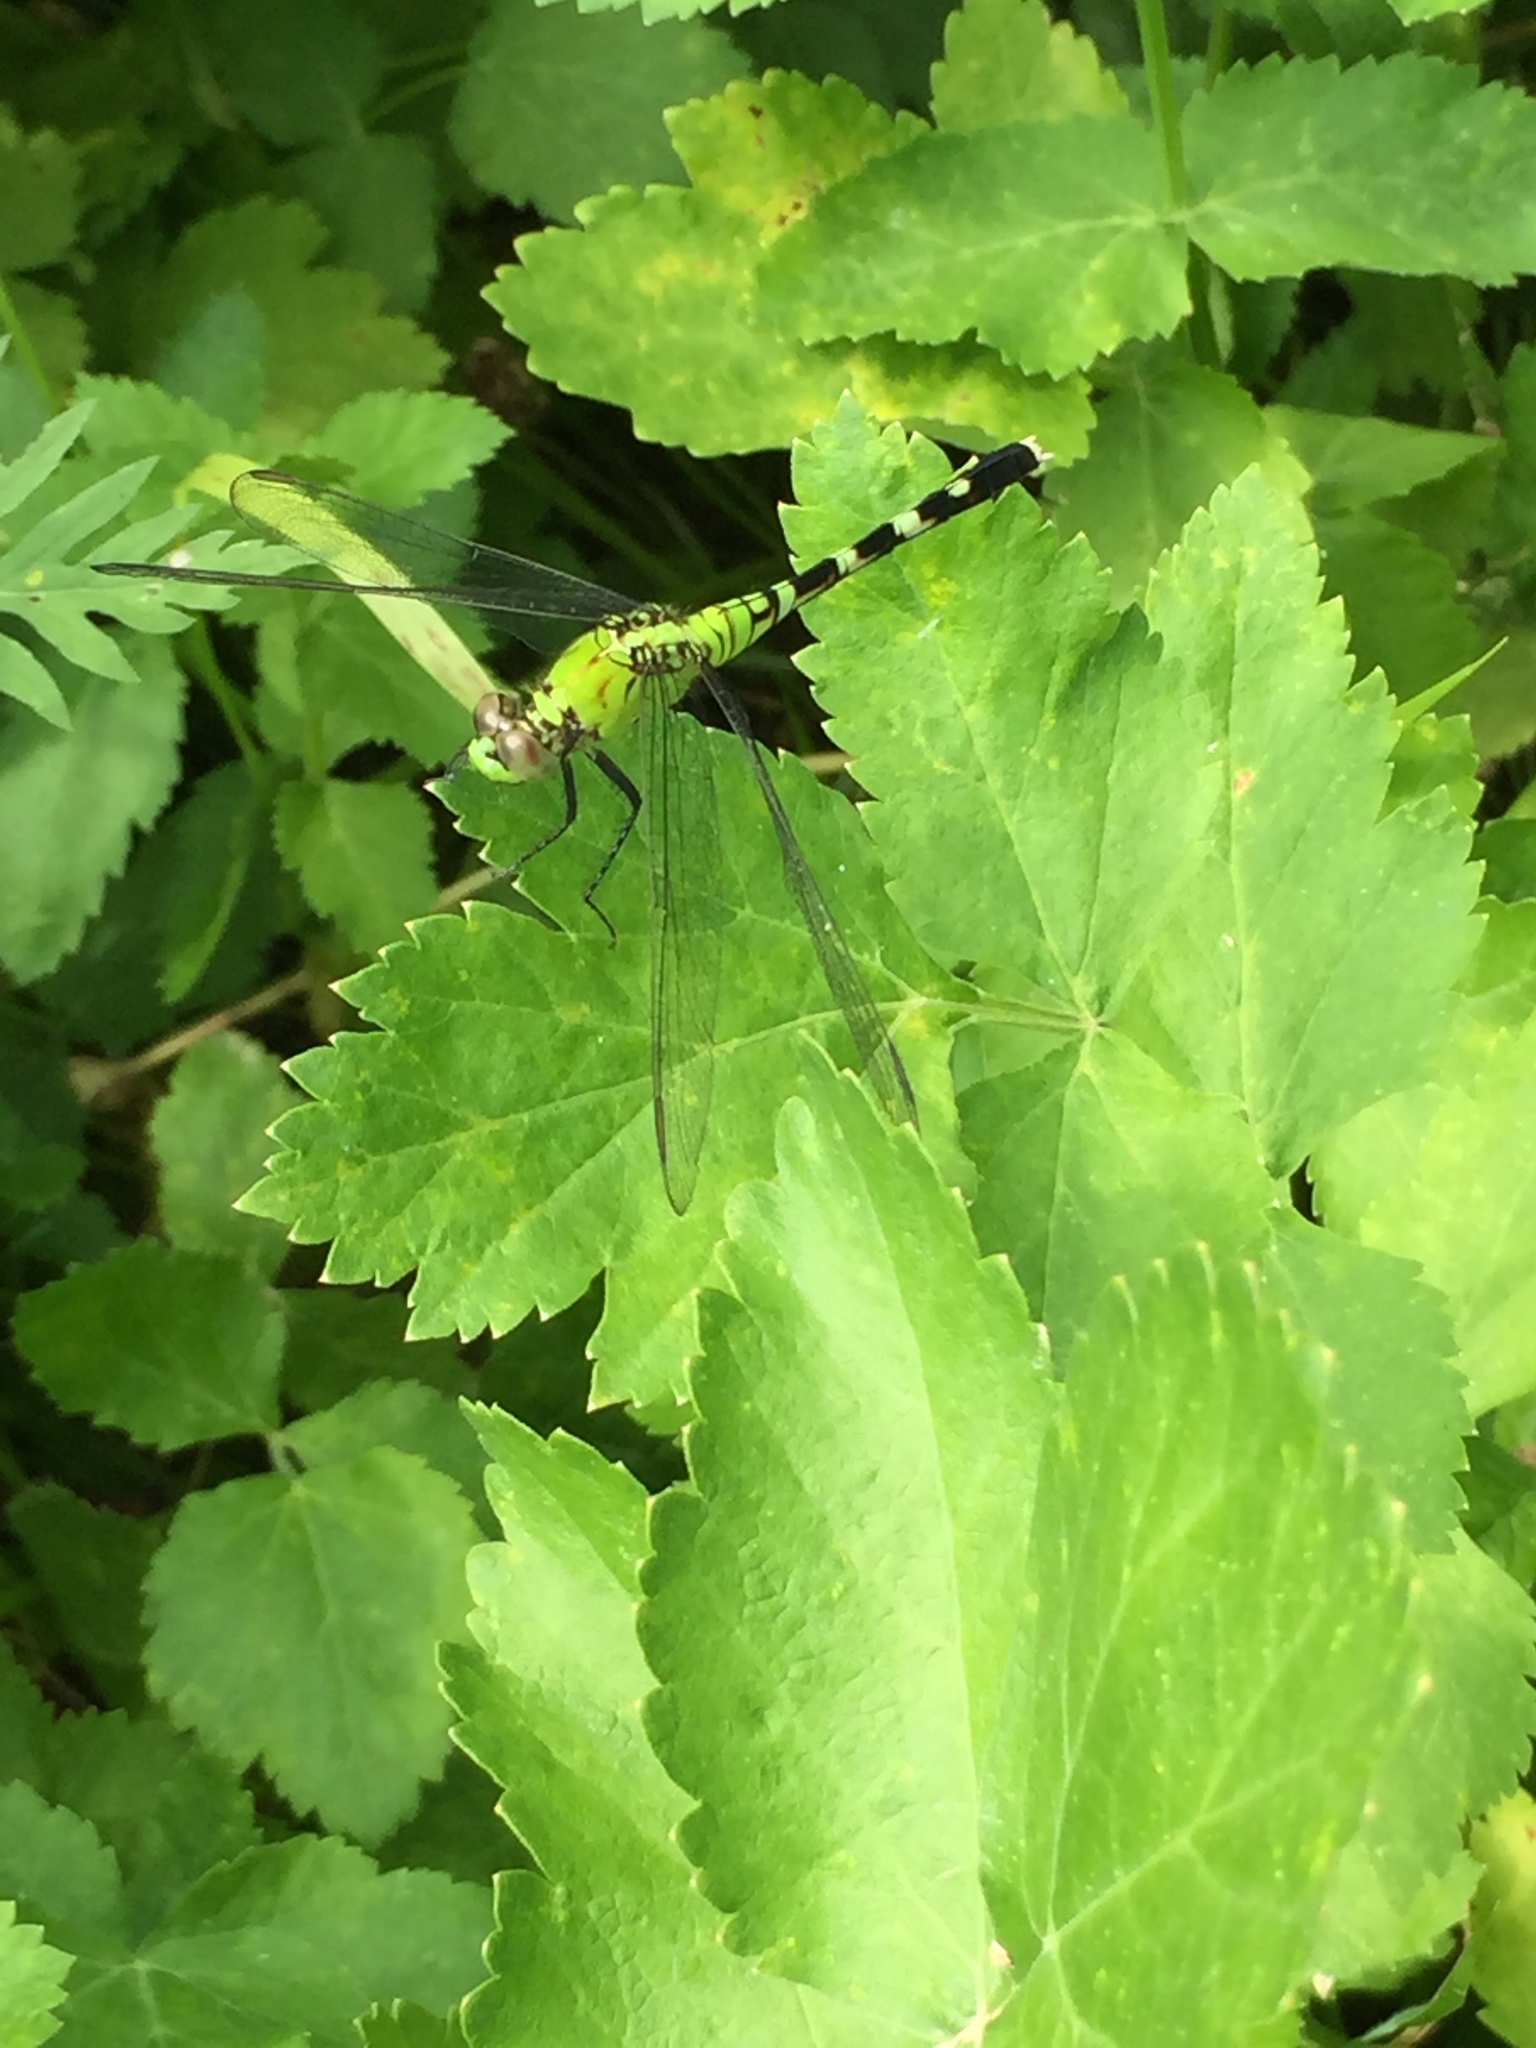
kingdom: Animalia
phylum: Arthropoda
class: Insecta
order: Odonata
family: Libellulidae
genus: Erythemis
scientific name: Erythemis simplicicollis
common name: Eastern pondhawk
